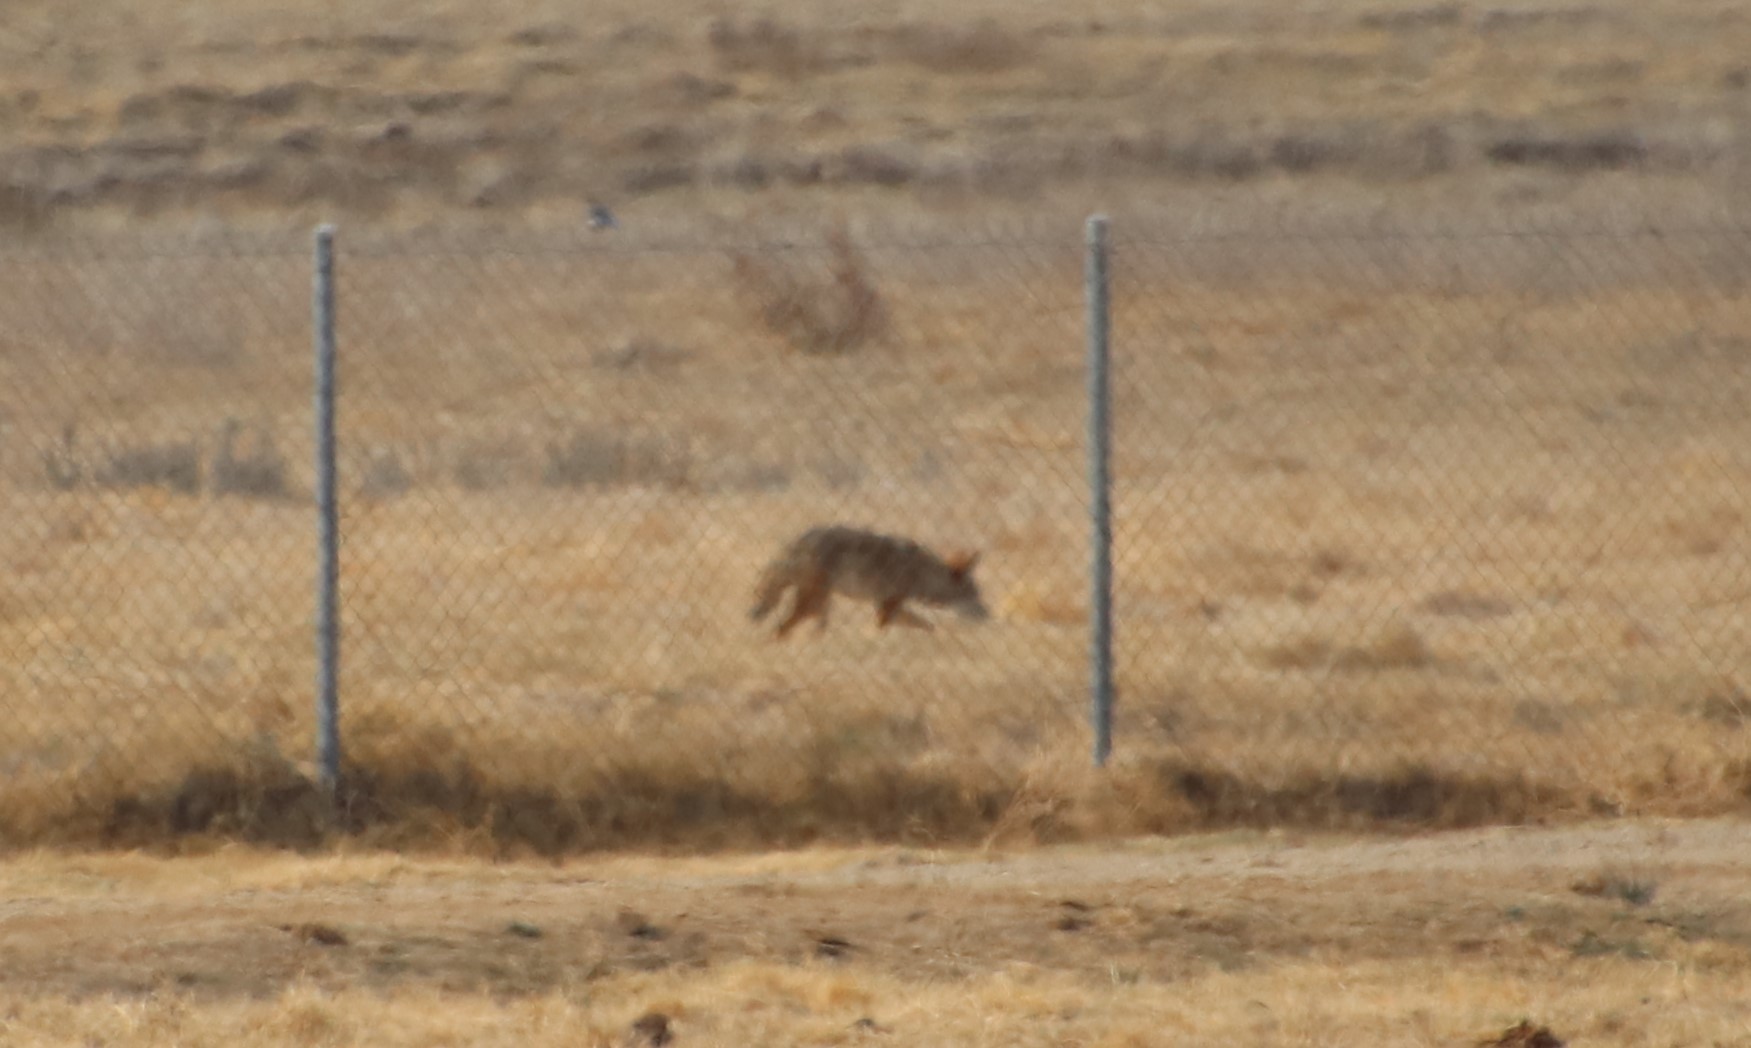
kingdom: Animalia
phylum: Chordata
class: Mammalia
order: Carnivora
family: Canidae
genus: Canis
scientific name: Canis latrans
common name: Coyote
